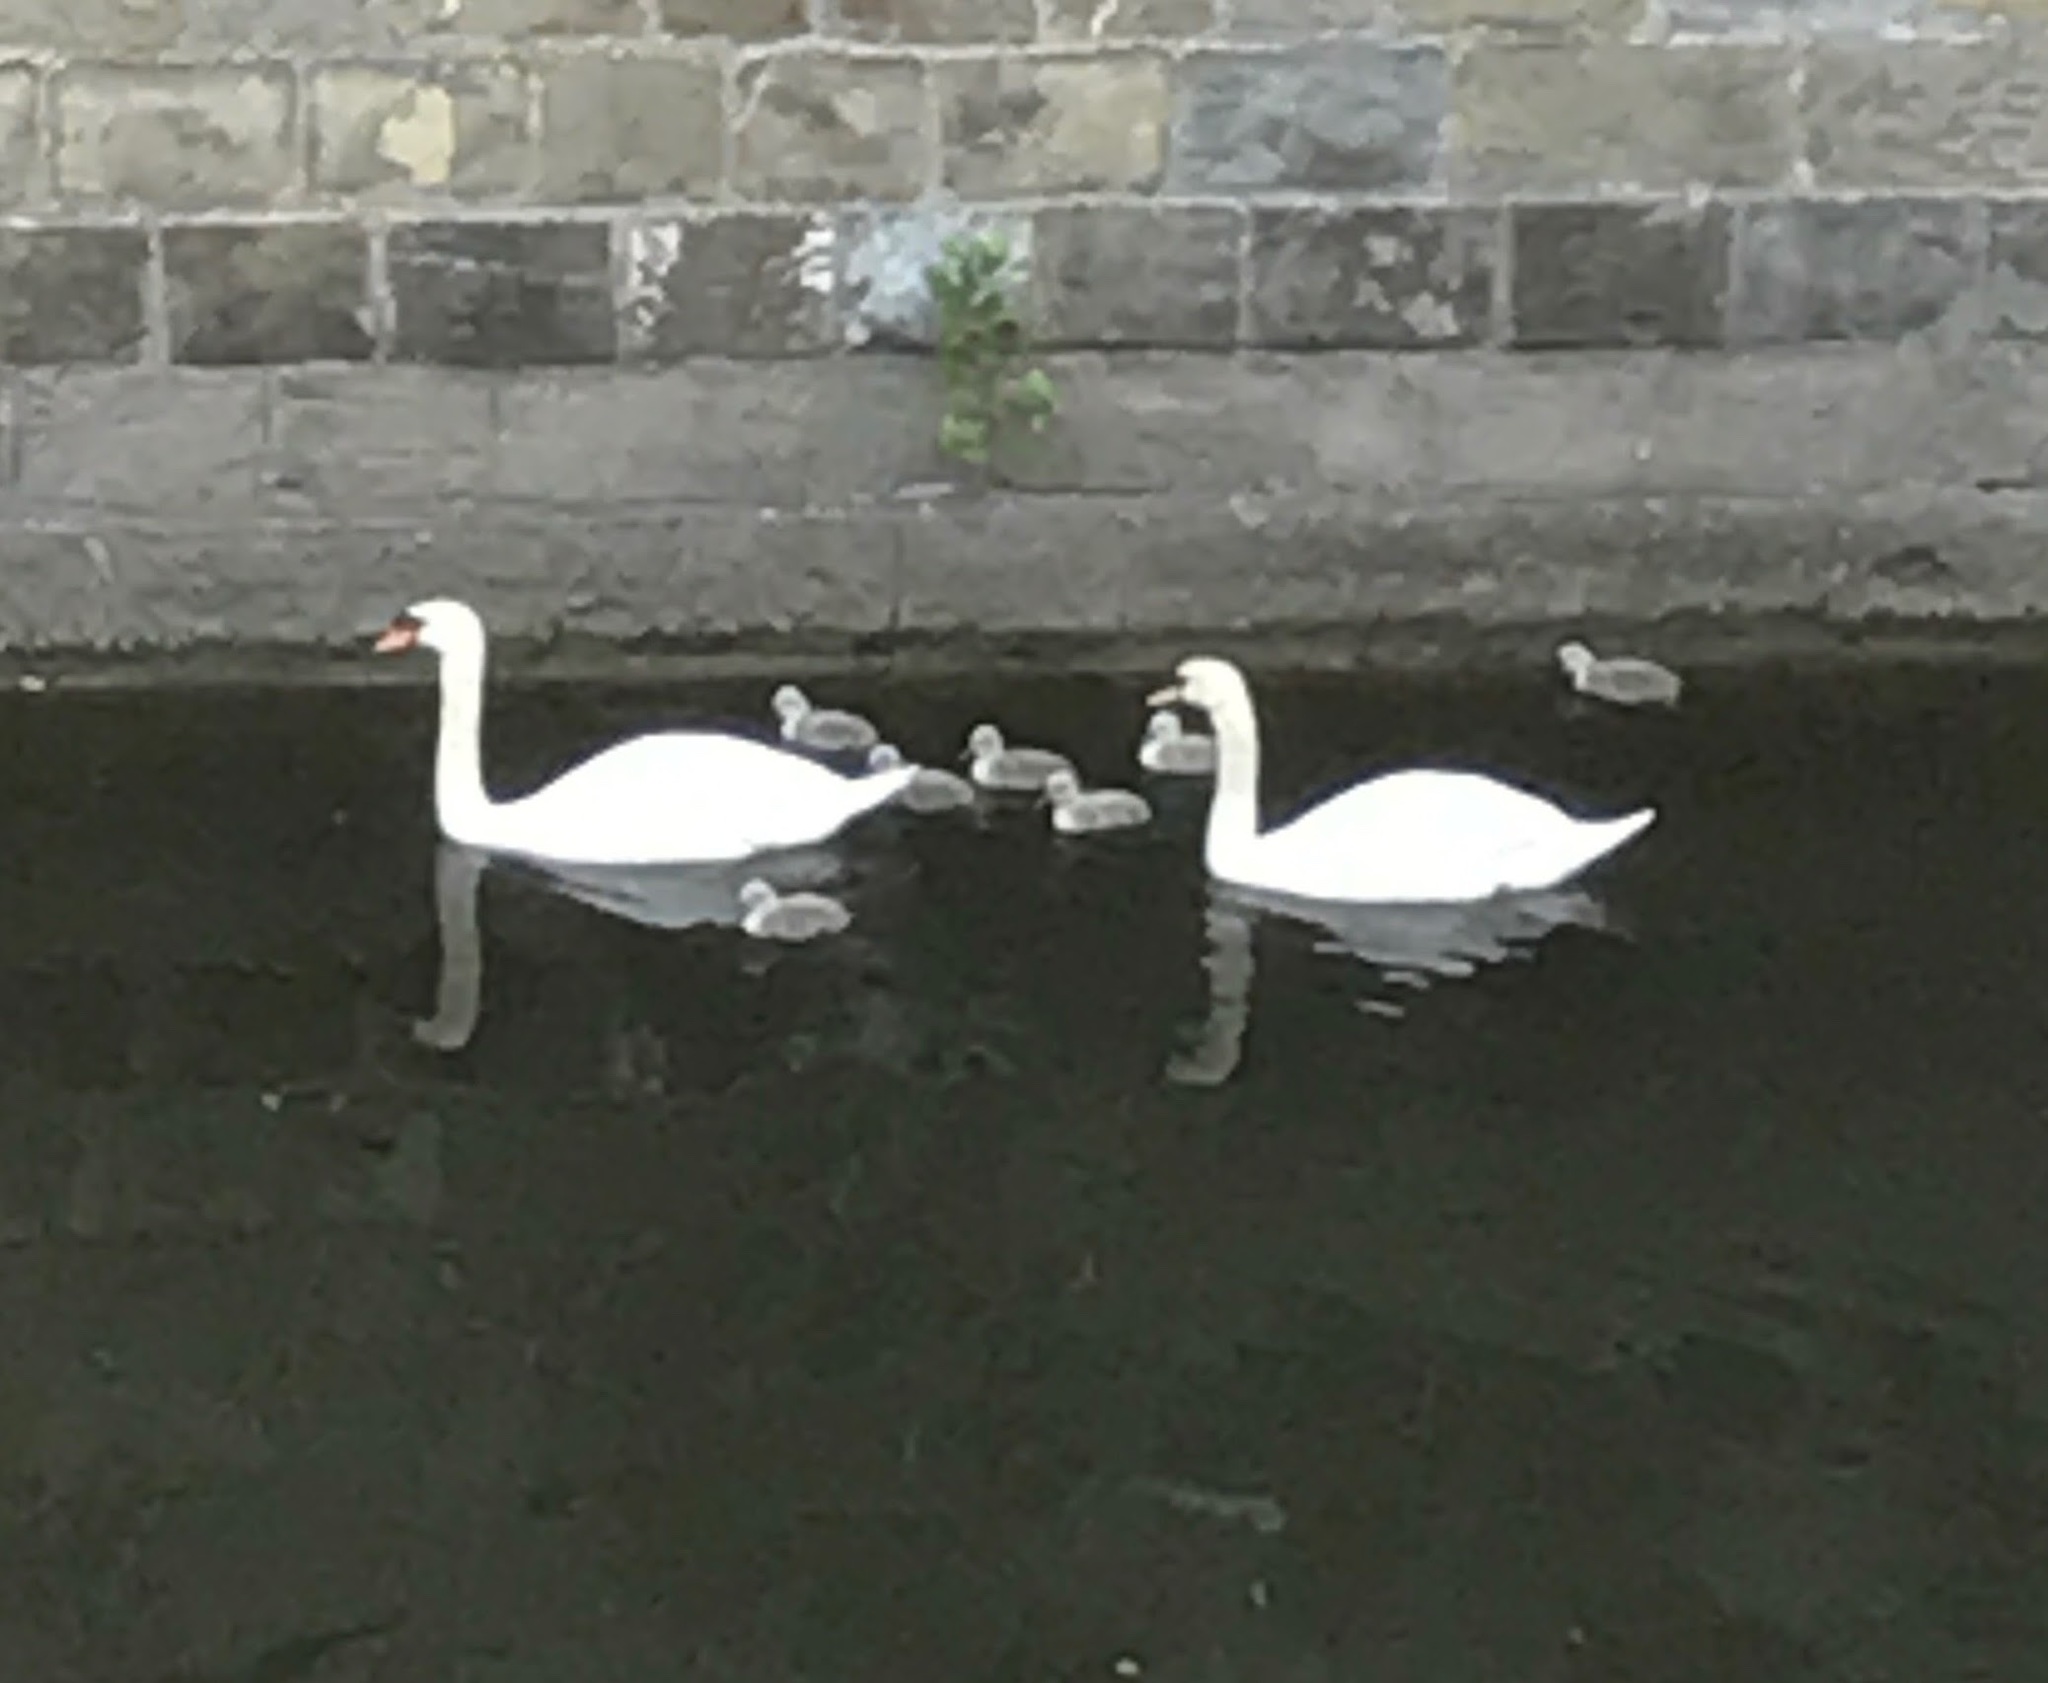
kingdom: Animalia
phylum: Chordata
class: Aves
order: Anseriformes
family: Anatidae
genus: Cygnus
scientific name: Cygnus olor
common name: Mute swan
